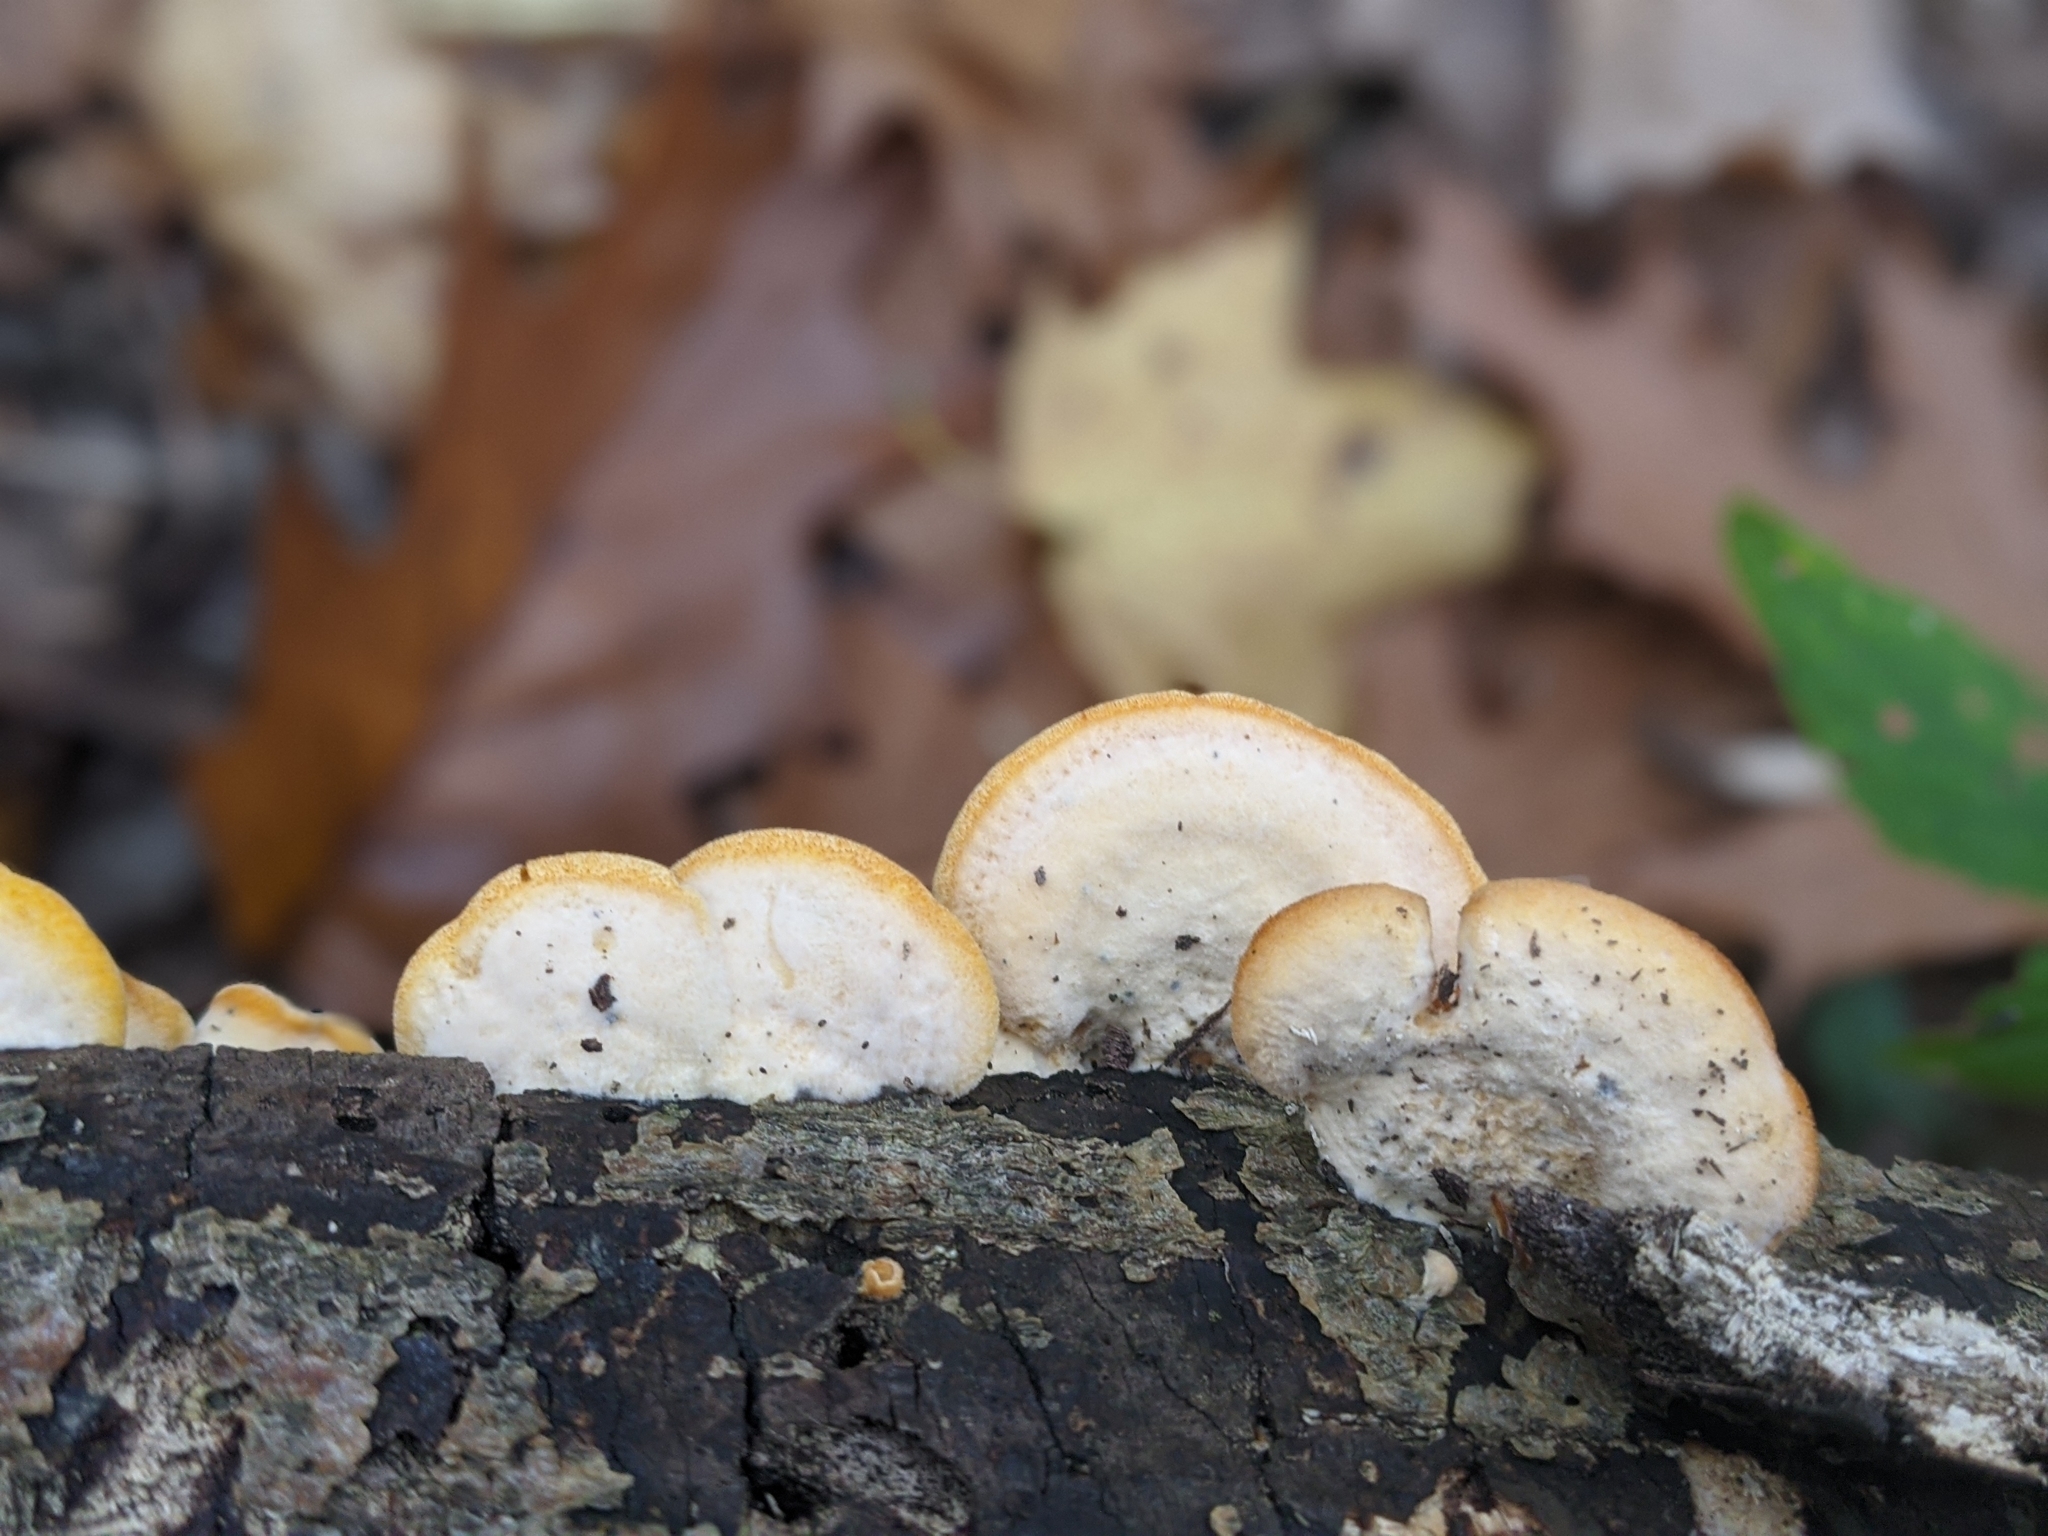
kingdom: Fungi
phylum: Basidiomycota
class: Agaricomycetes
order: Agaricales
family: Phyllotopsidaceae
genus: Phyllotopsis
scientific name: Phyllotopsis nidulans
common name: Orange mock oyster
